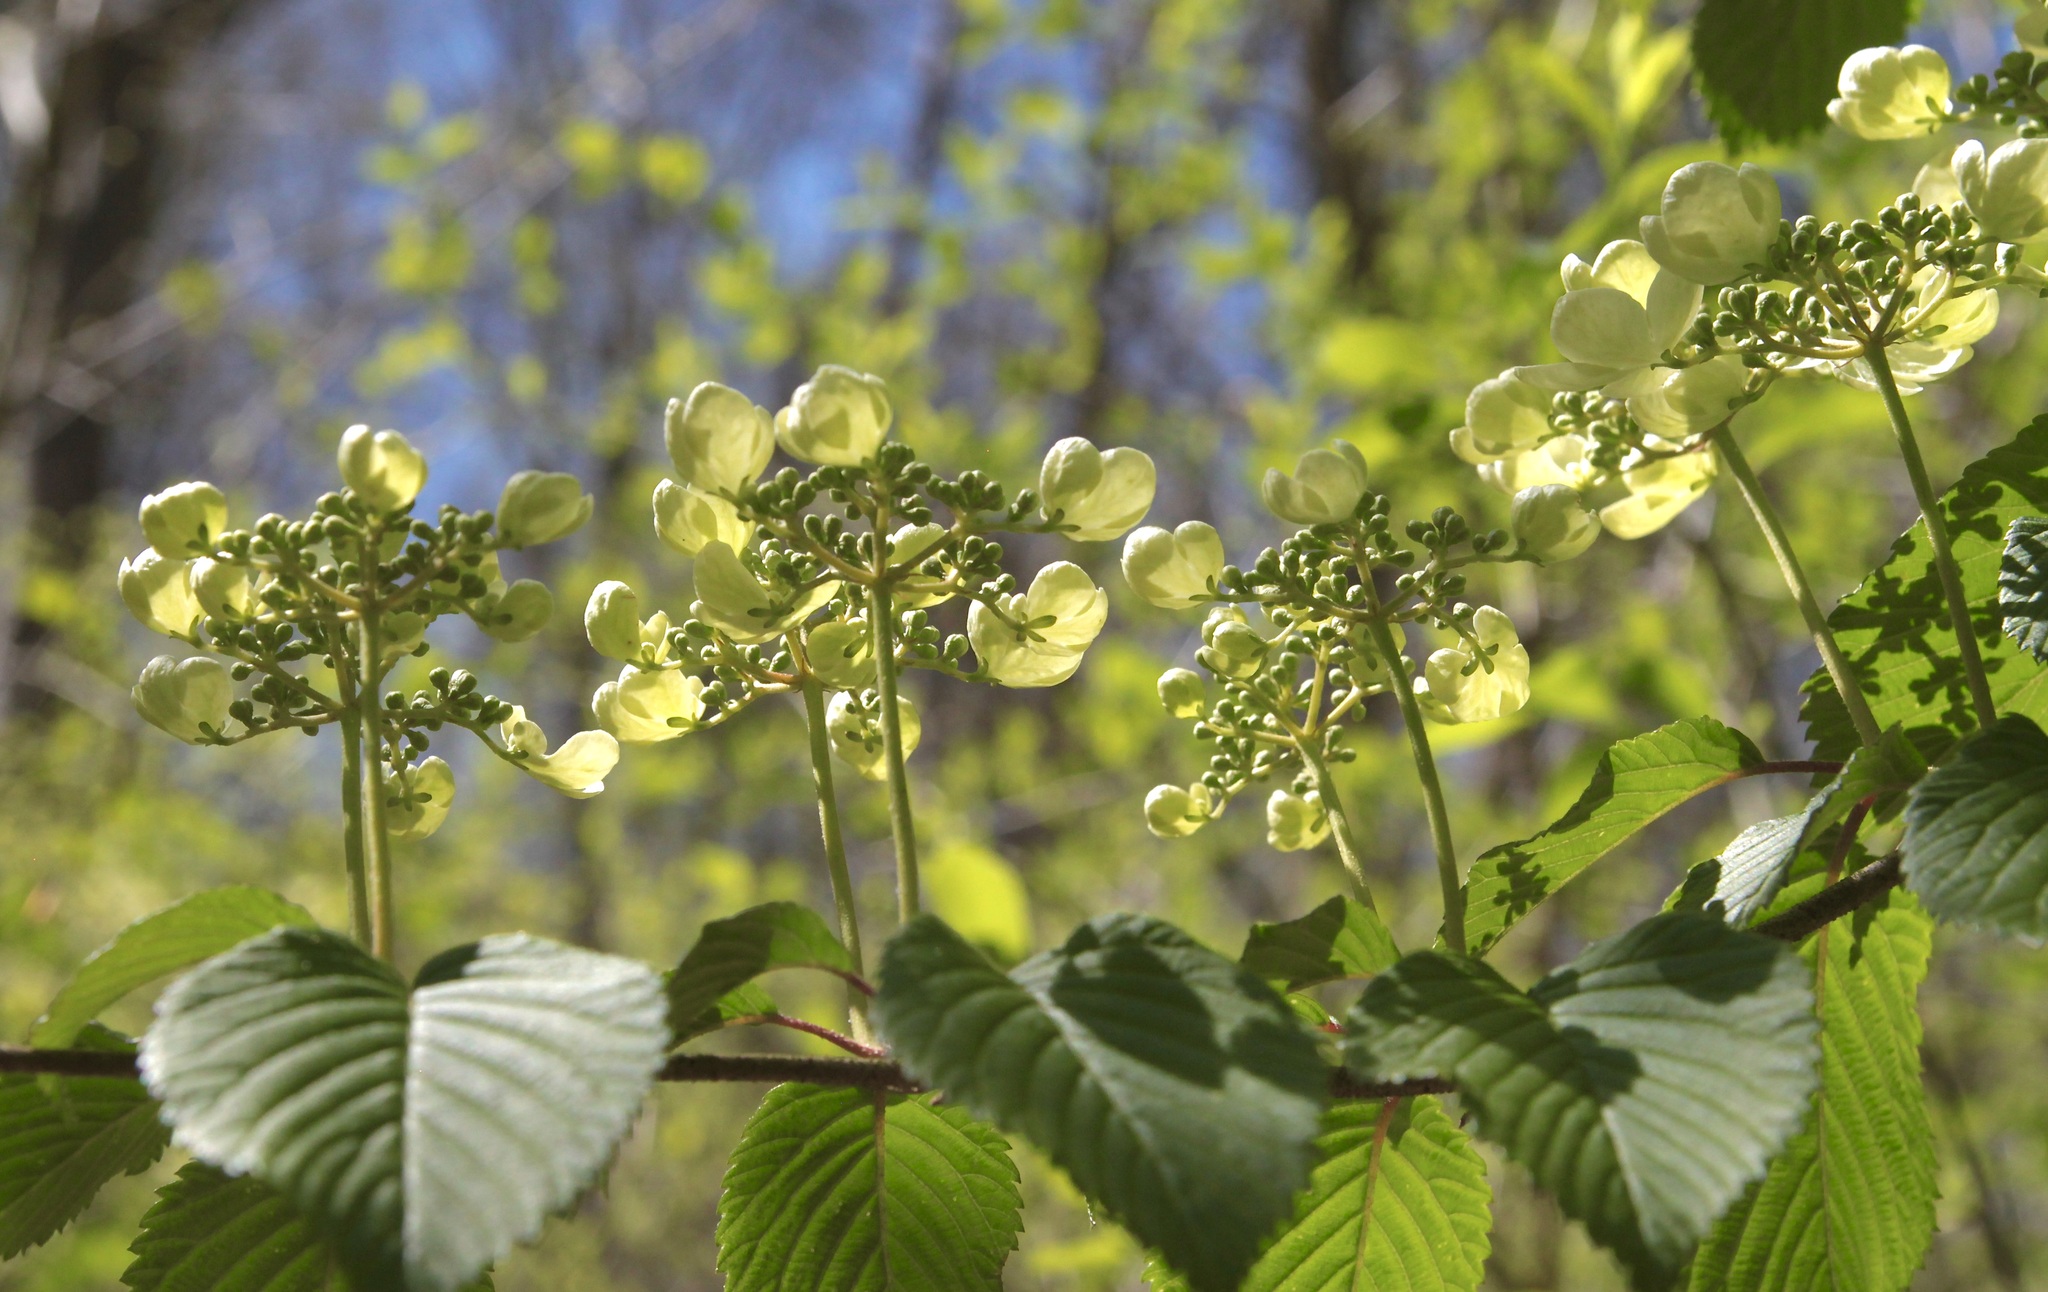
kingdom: Plantae
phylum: Tracheophyta
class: Magnoliopsida
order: Dipsacales
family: Viburnaceae
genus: Viburnum
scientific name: Viburnum plicatum
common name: Japanese snowball
